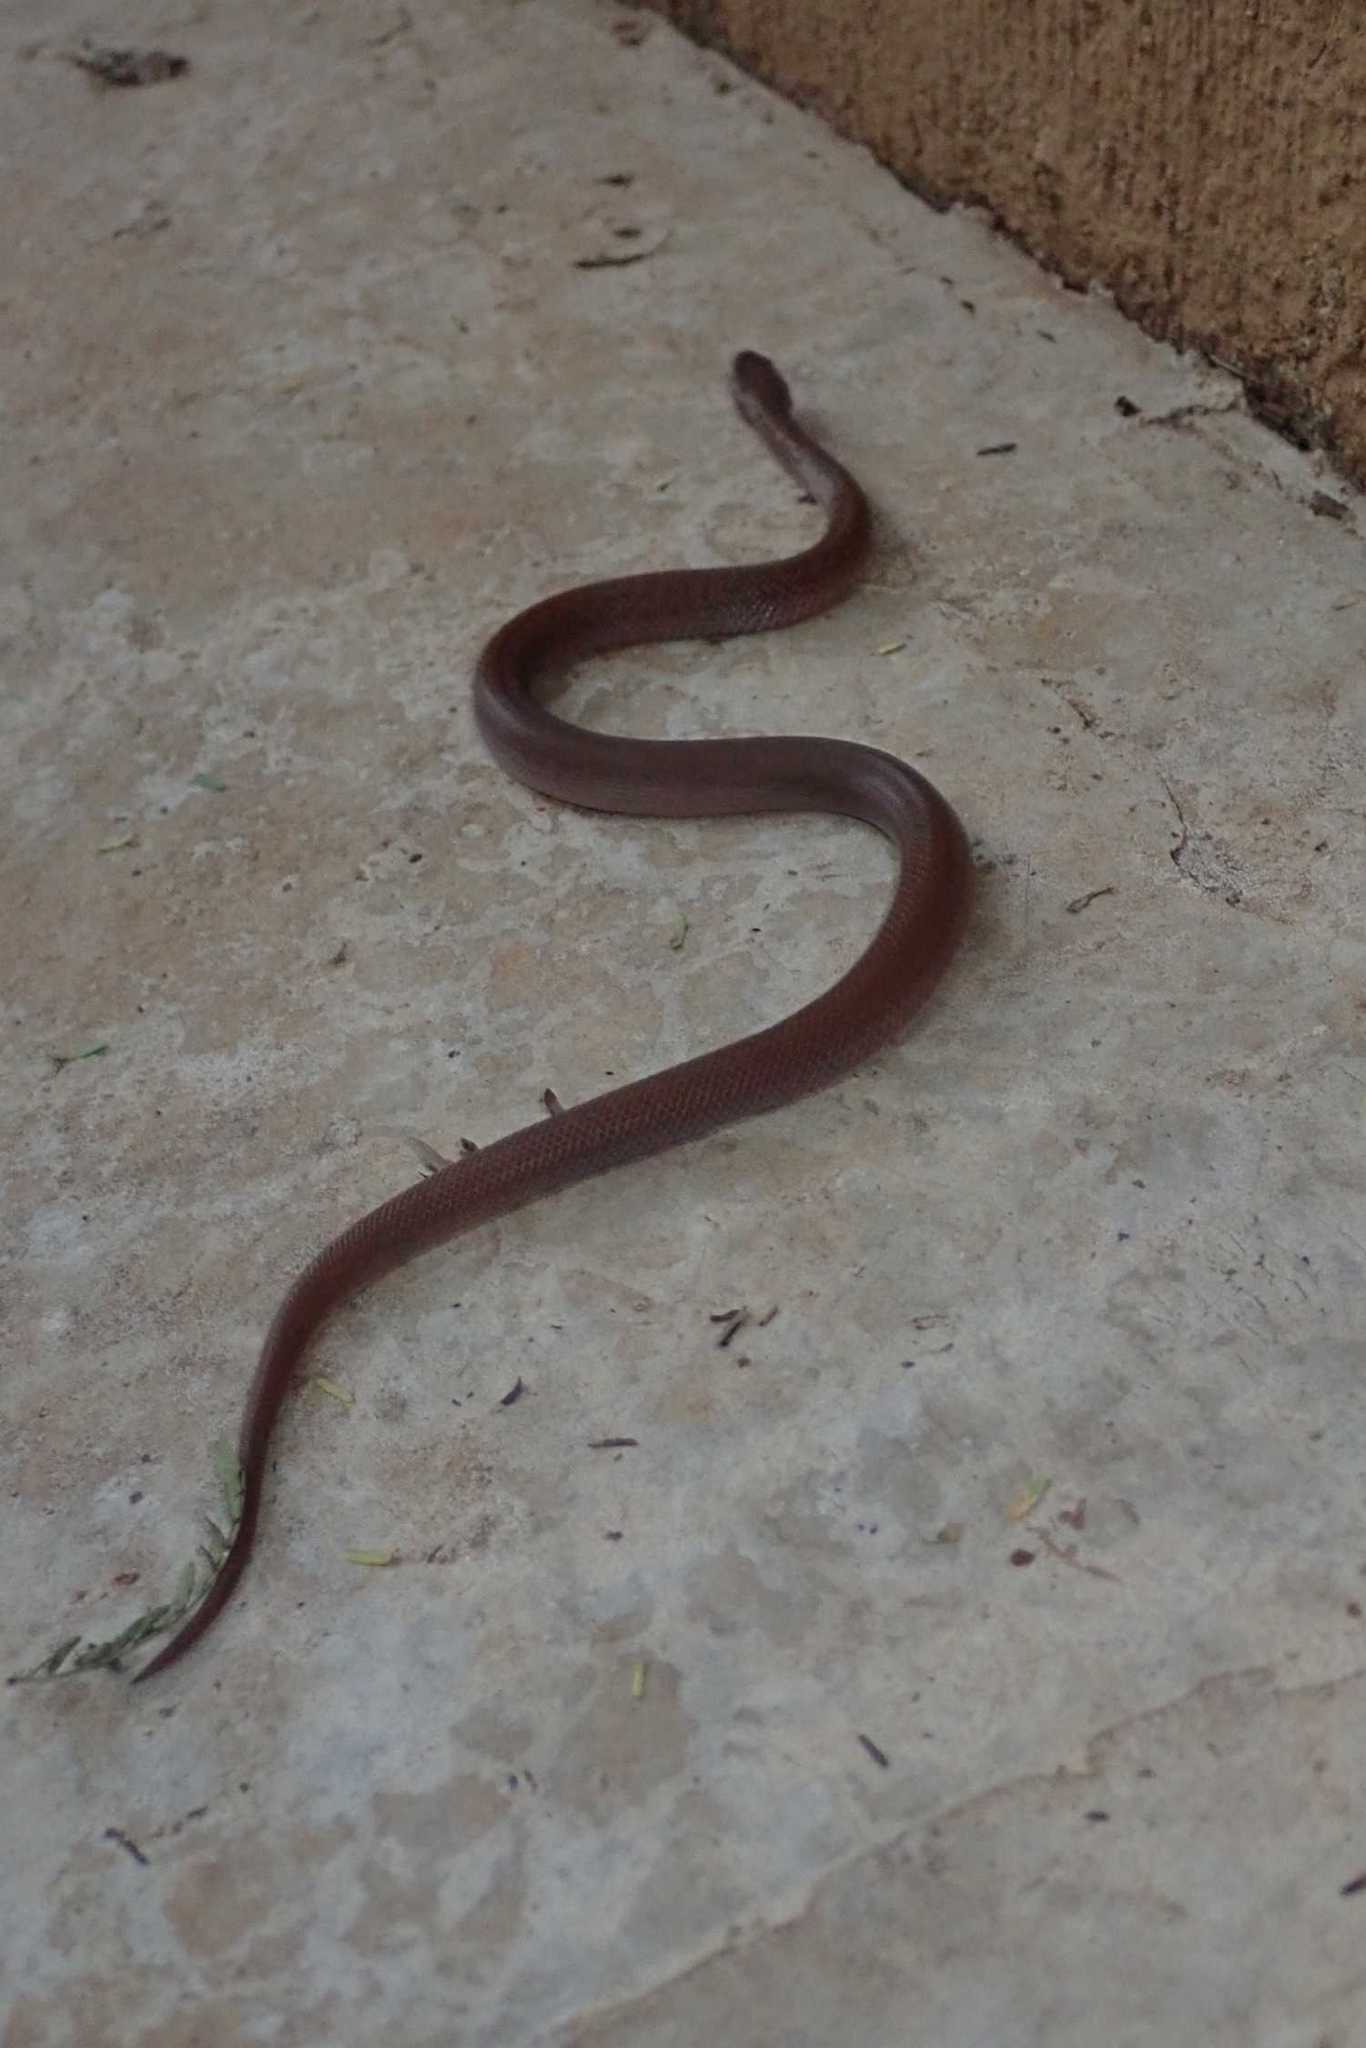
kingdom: Animalia
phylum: Chordata
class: Squamata
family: Lamprophiidae
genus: Boaedon
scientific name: Boaedon capensis
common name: Brown house snake
